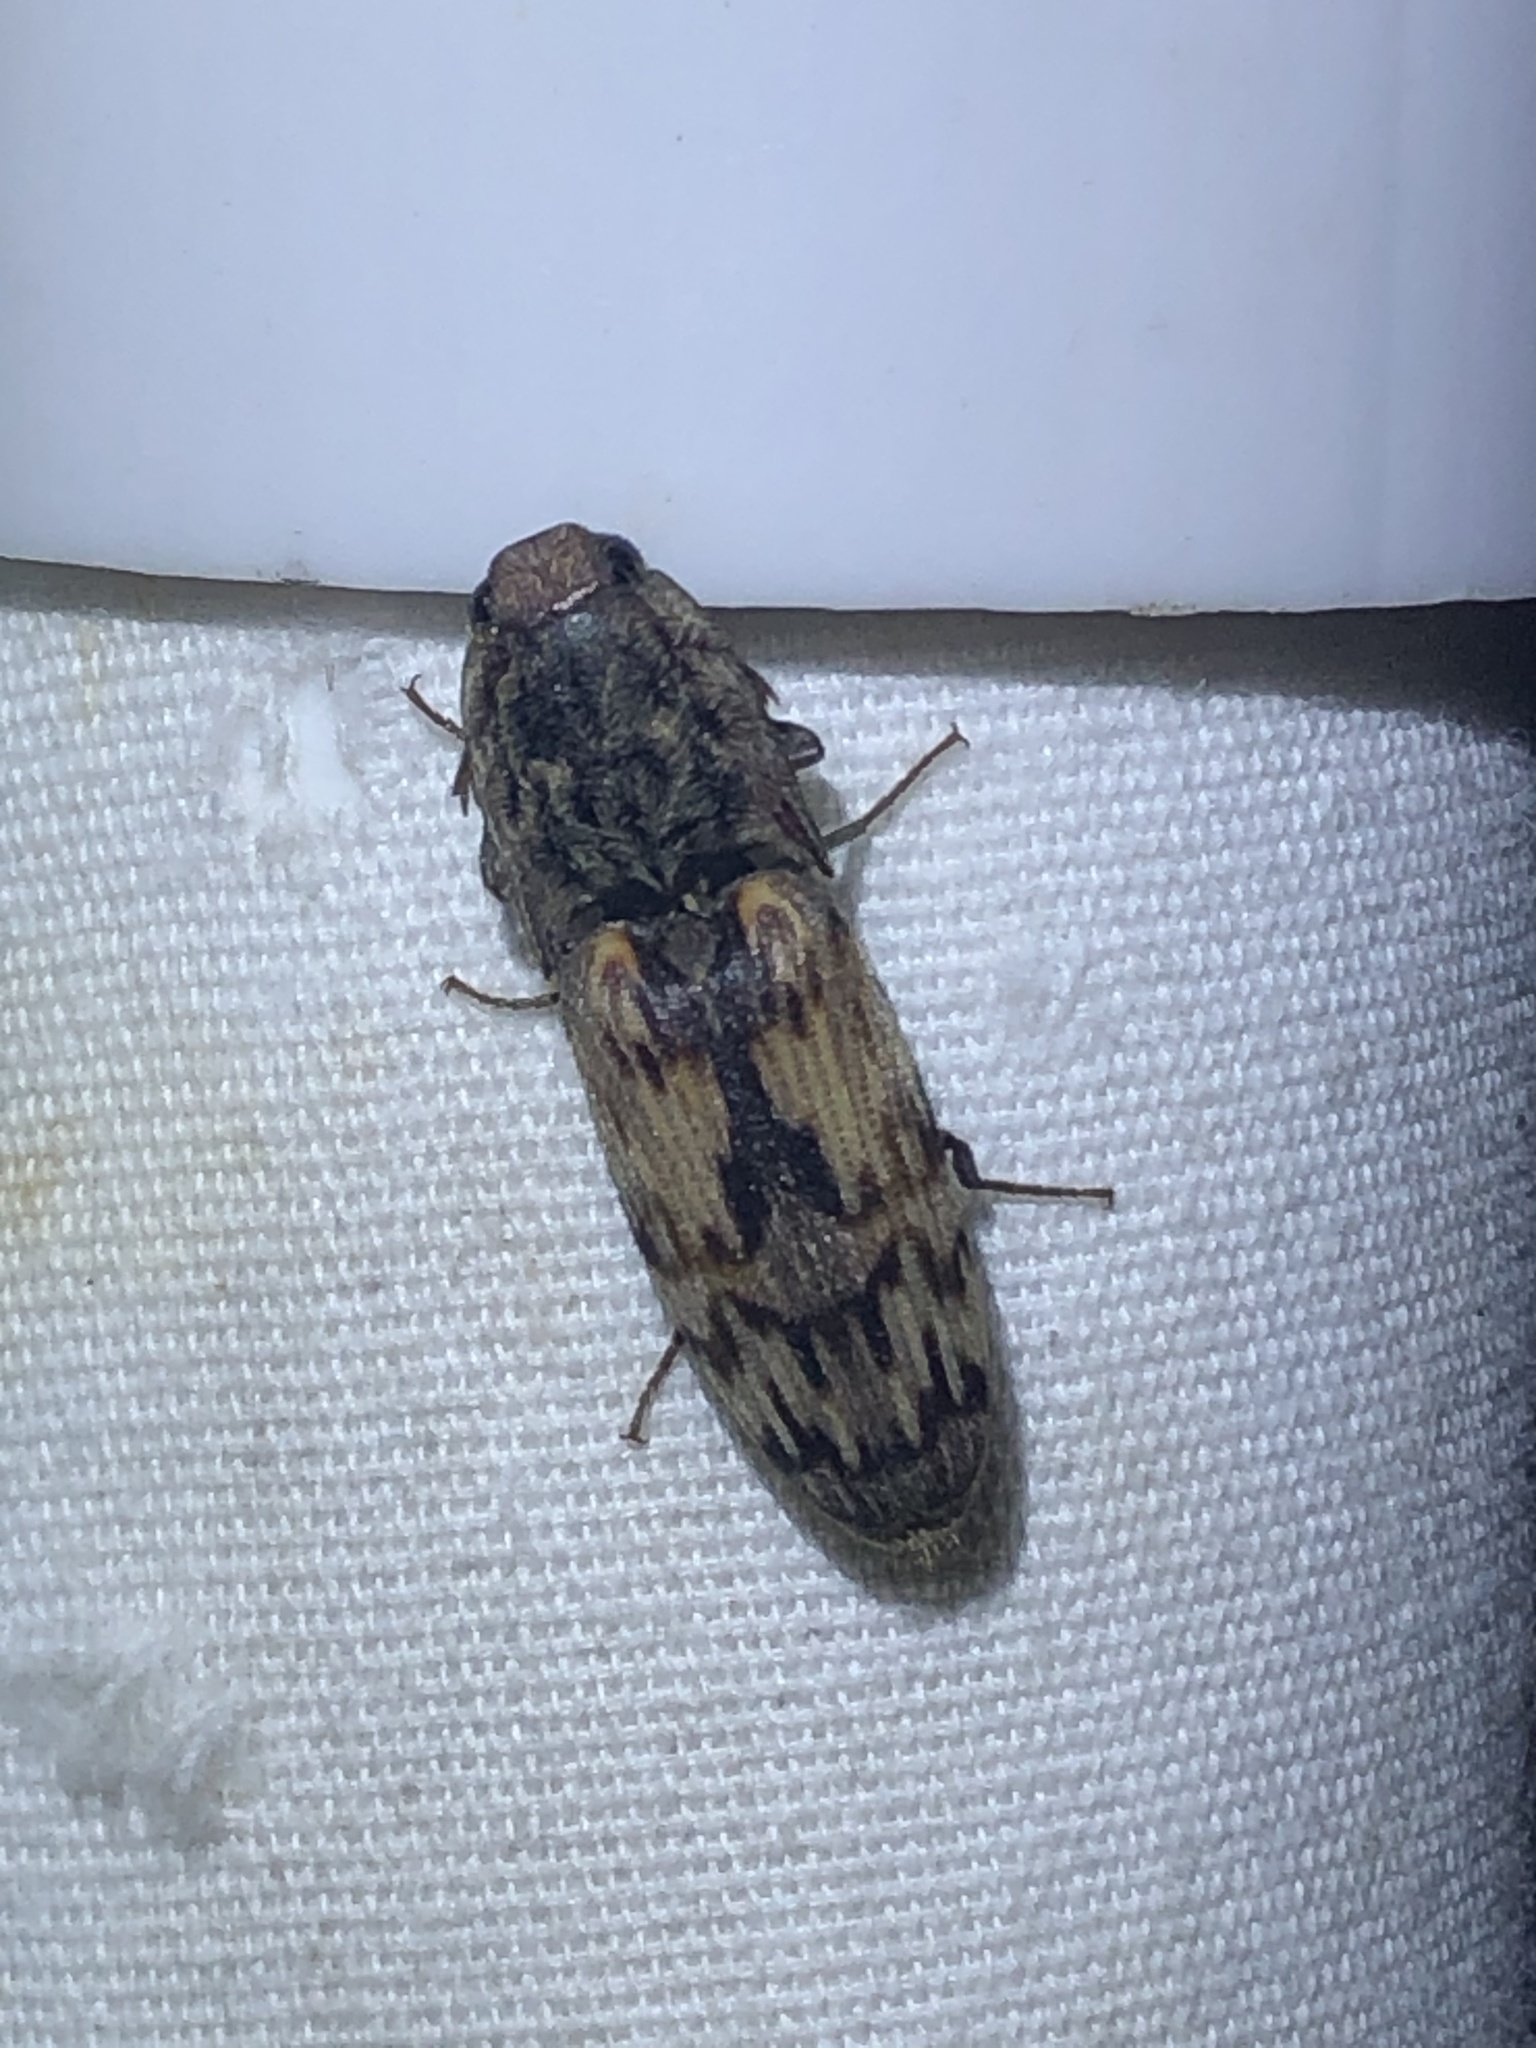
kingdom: Animalia
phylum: Arthropoda
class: Insecta
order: Coleoptera
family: Elateridae
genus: Pherhimius
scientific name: Pherhimius fascicularis
